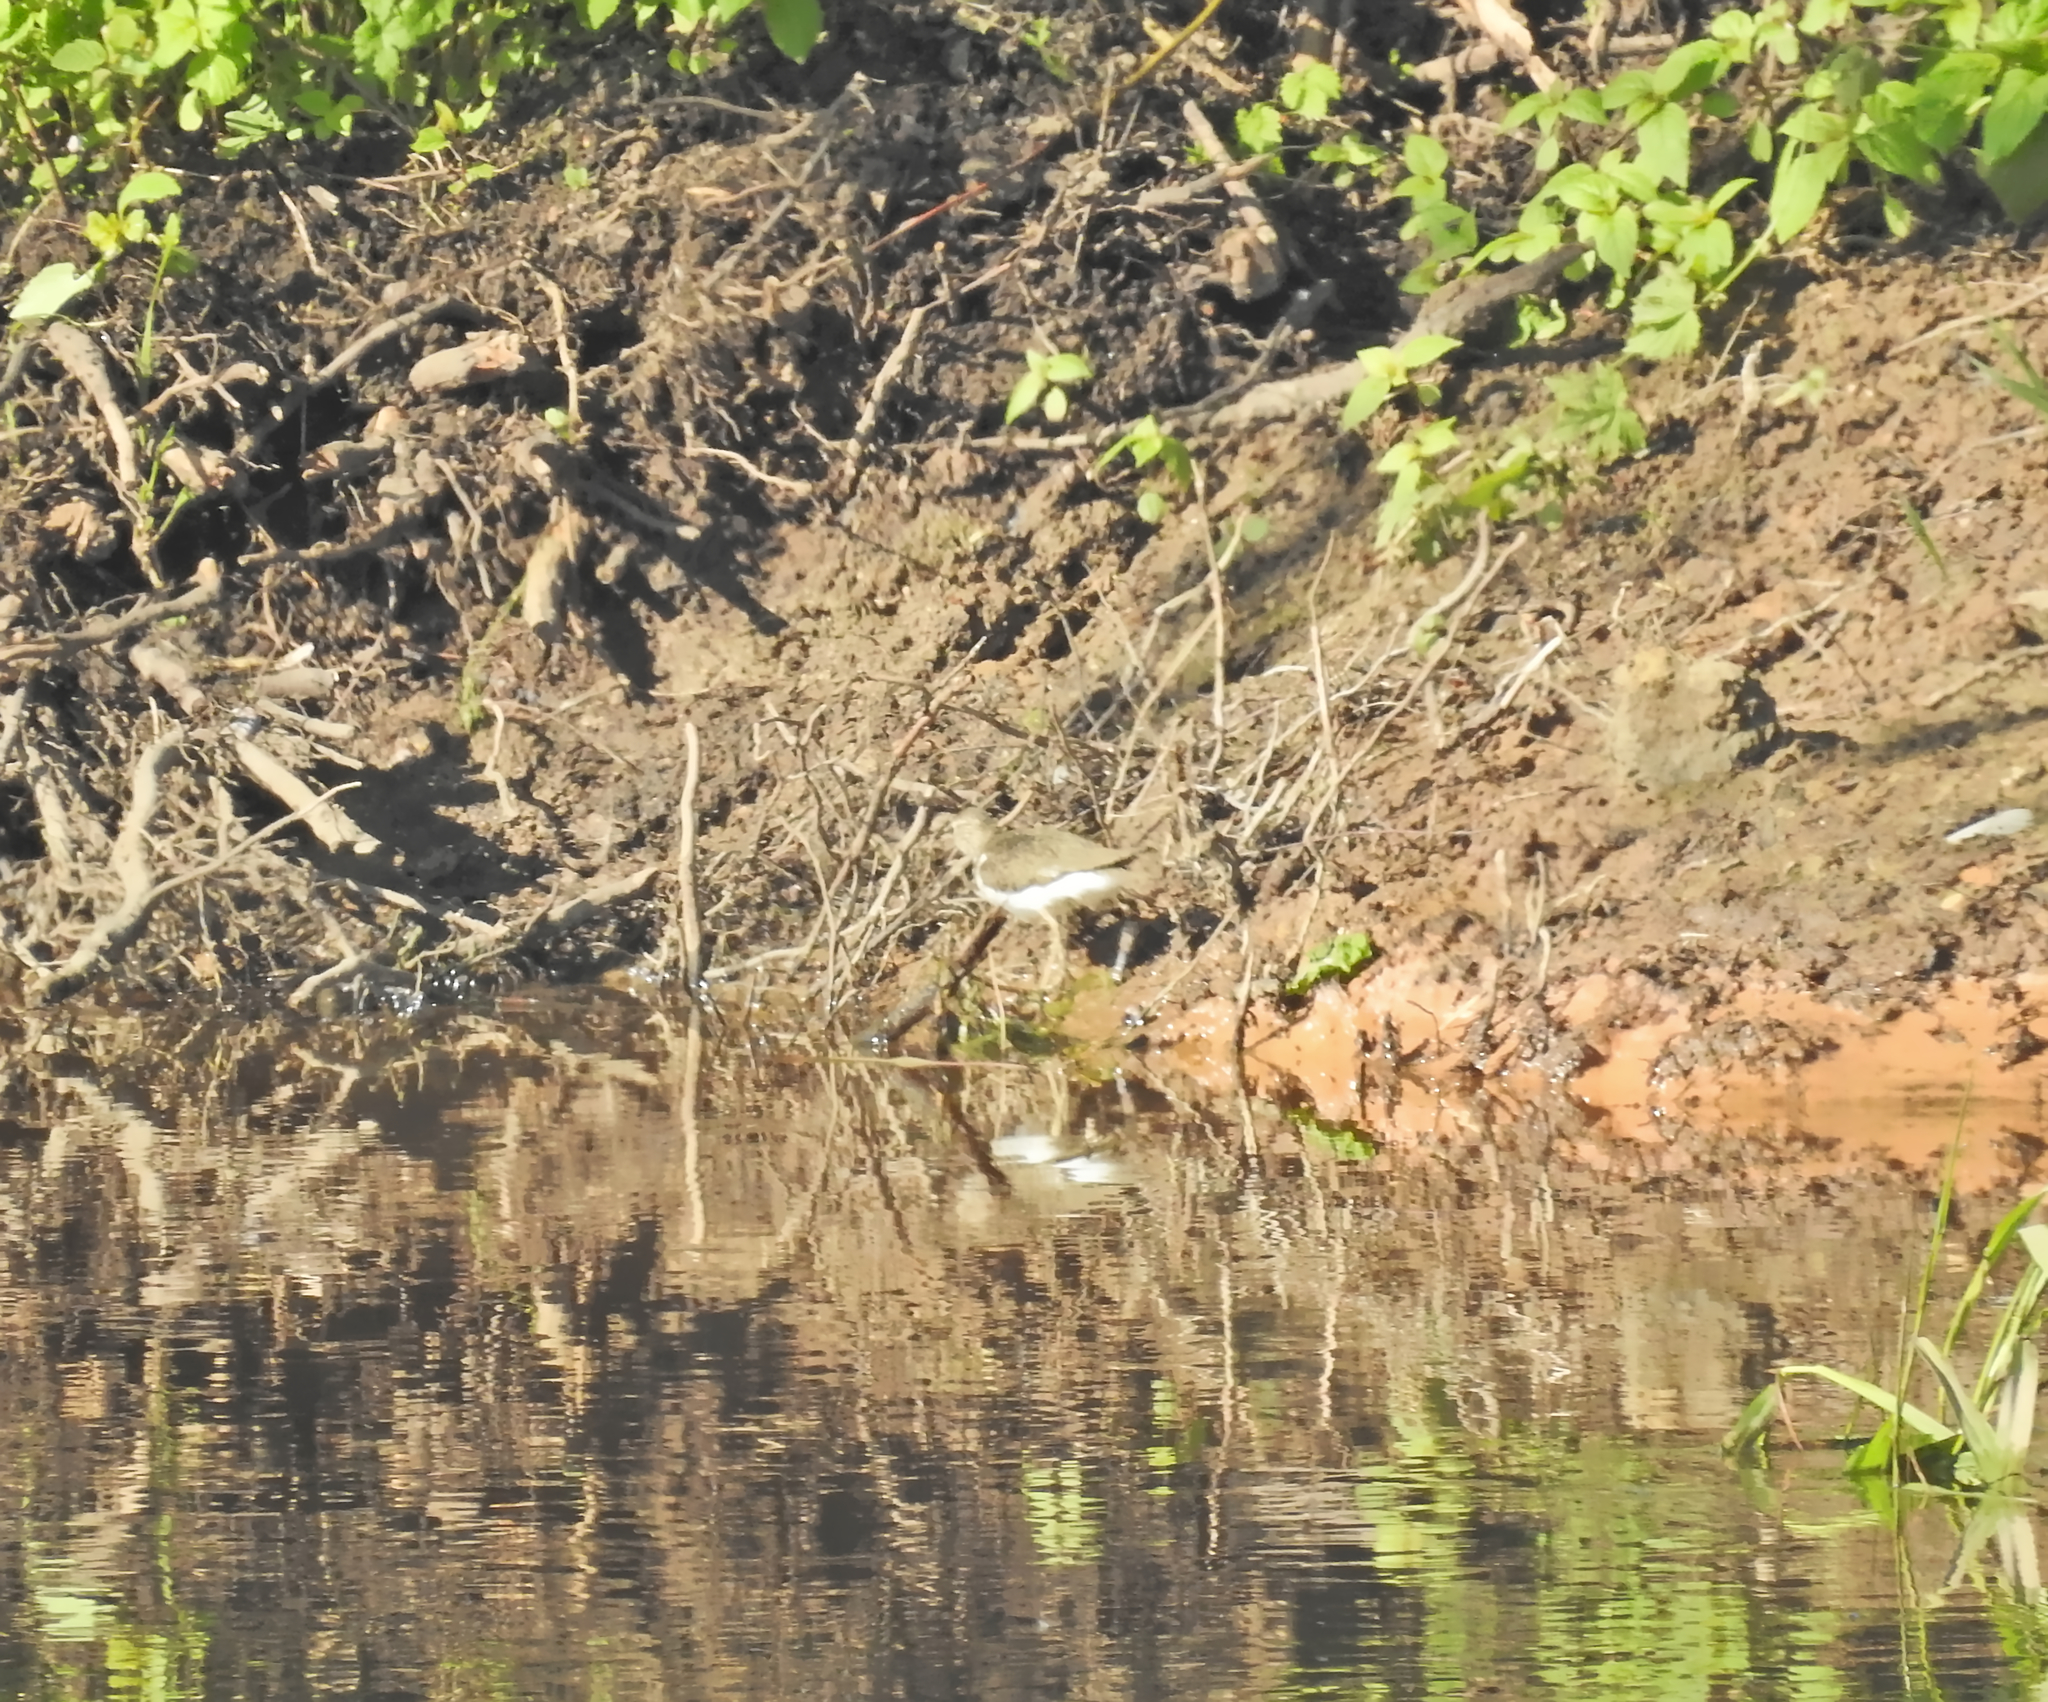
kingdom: Animalia
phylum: Chordata
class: Aves
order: Charadriiformes
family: Scolopacidae
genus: Actitis
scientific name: Actitis hypoleucos
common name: Common sandpiper
